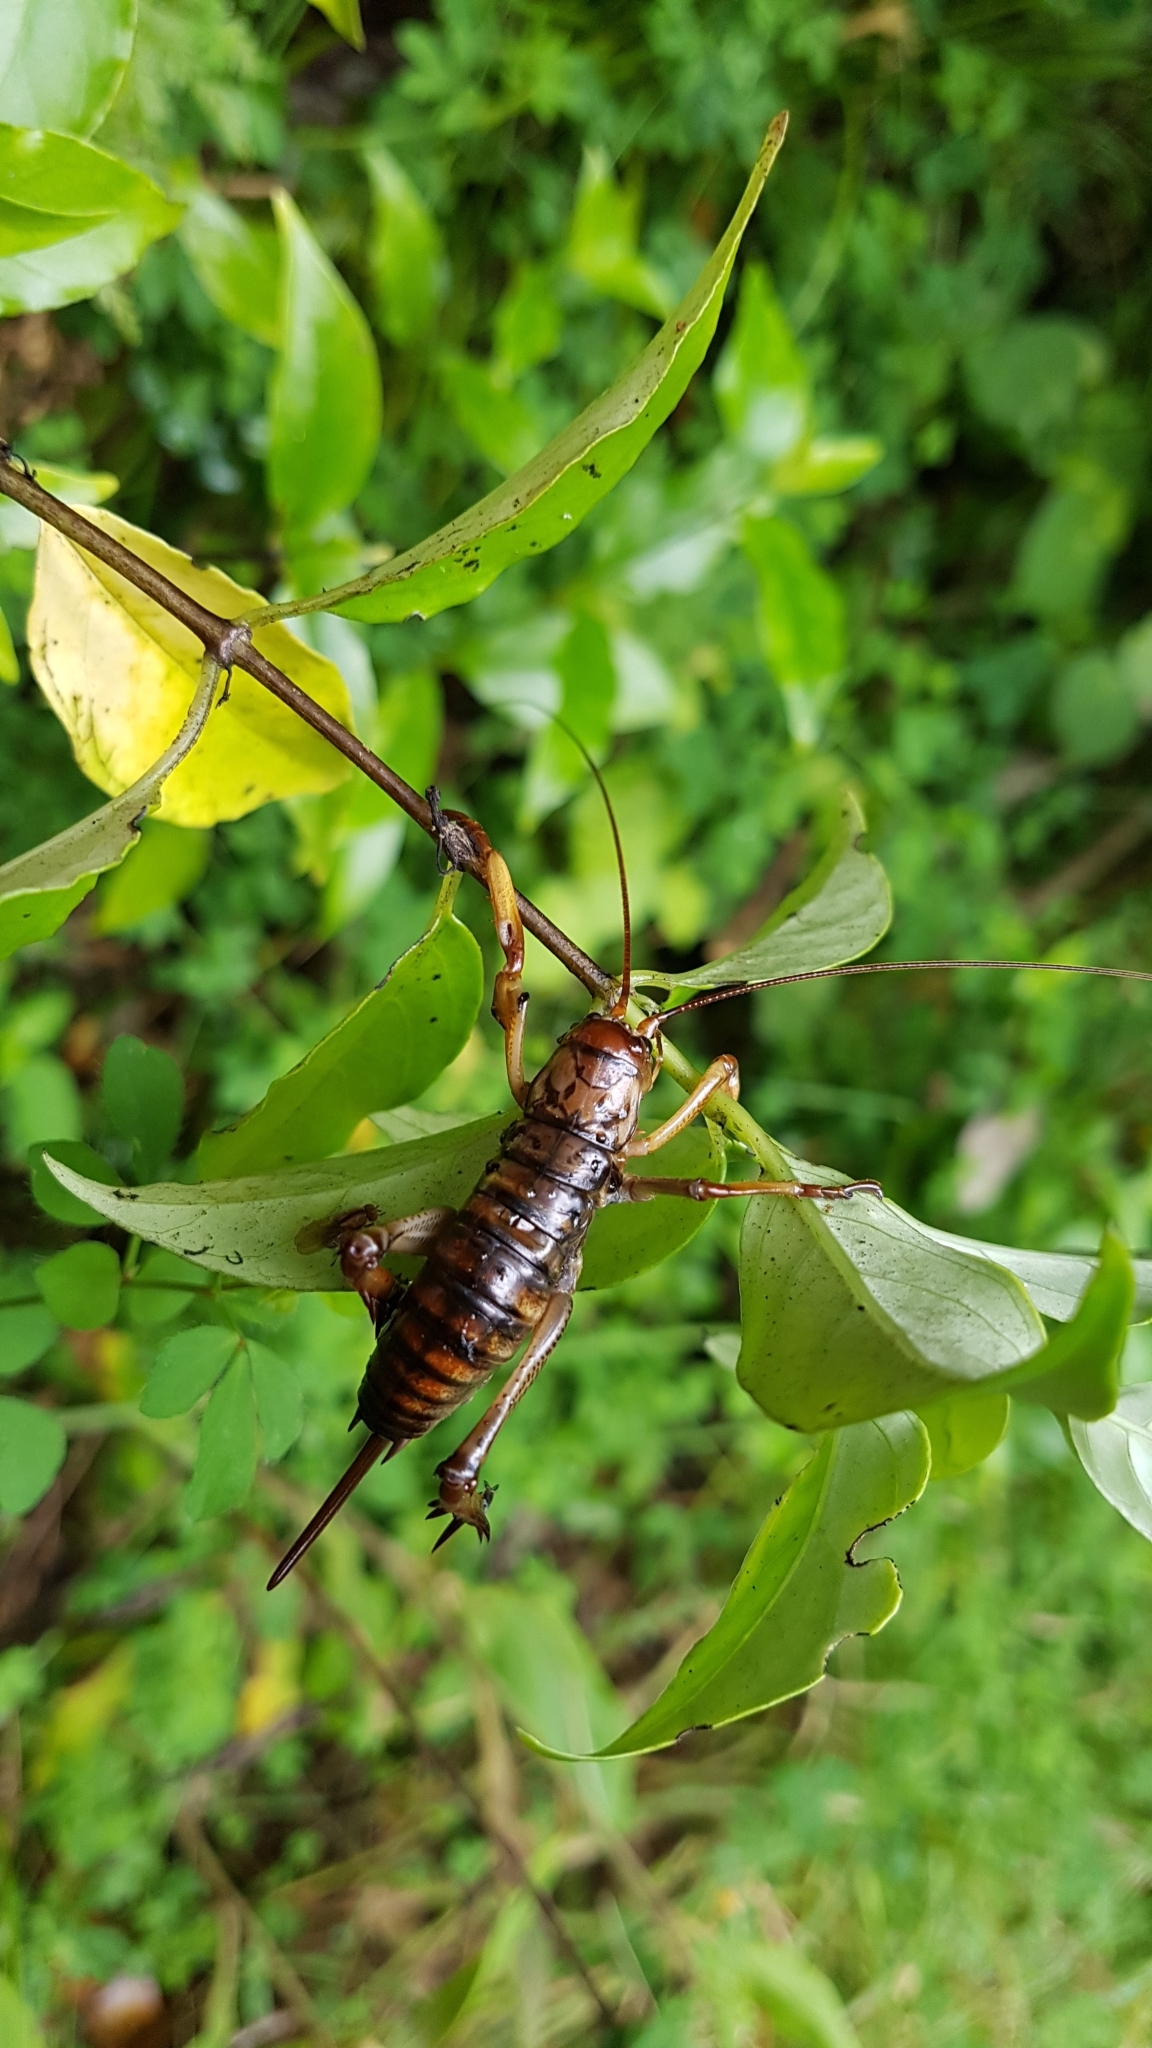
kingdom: Animalia
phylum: Arthropoda
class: Insecta
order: Orthoptera
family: Anostostomatidae
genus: Hemideina
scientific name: Hemideina thoracica
